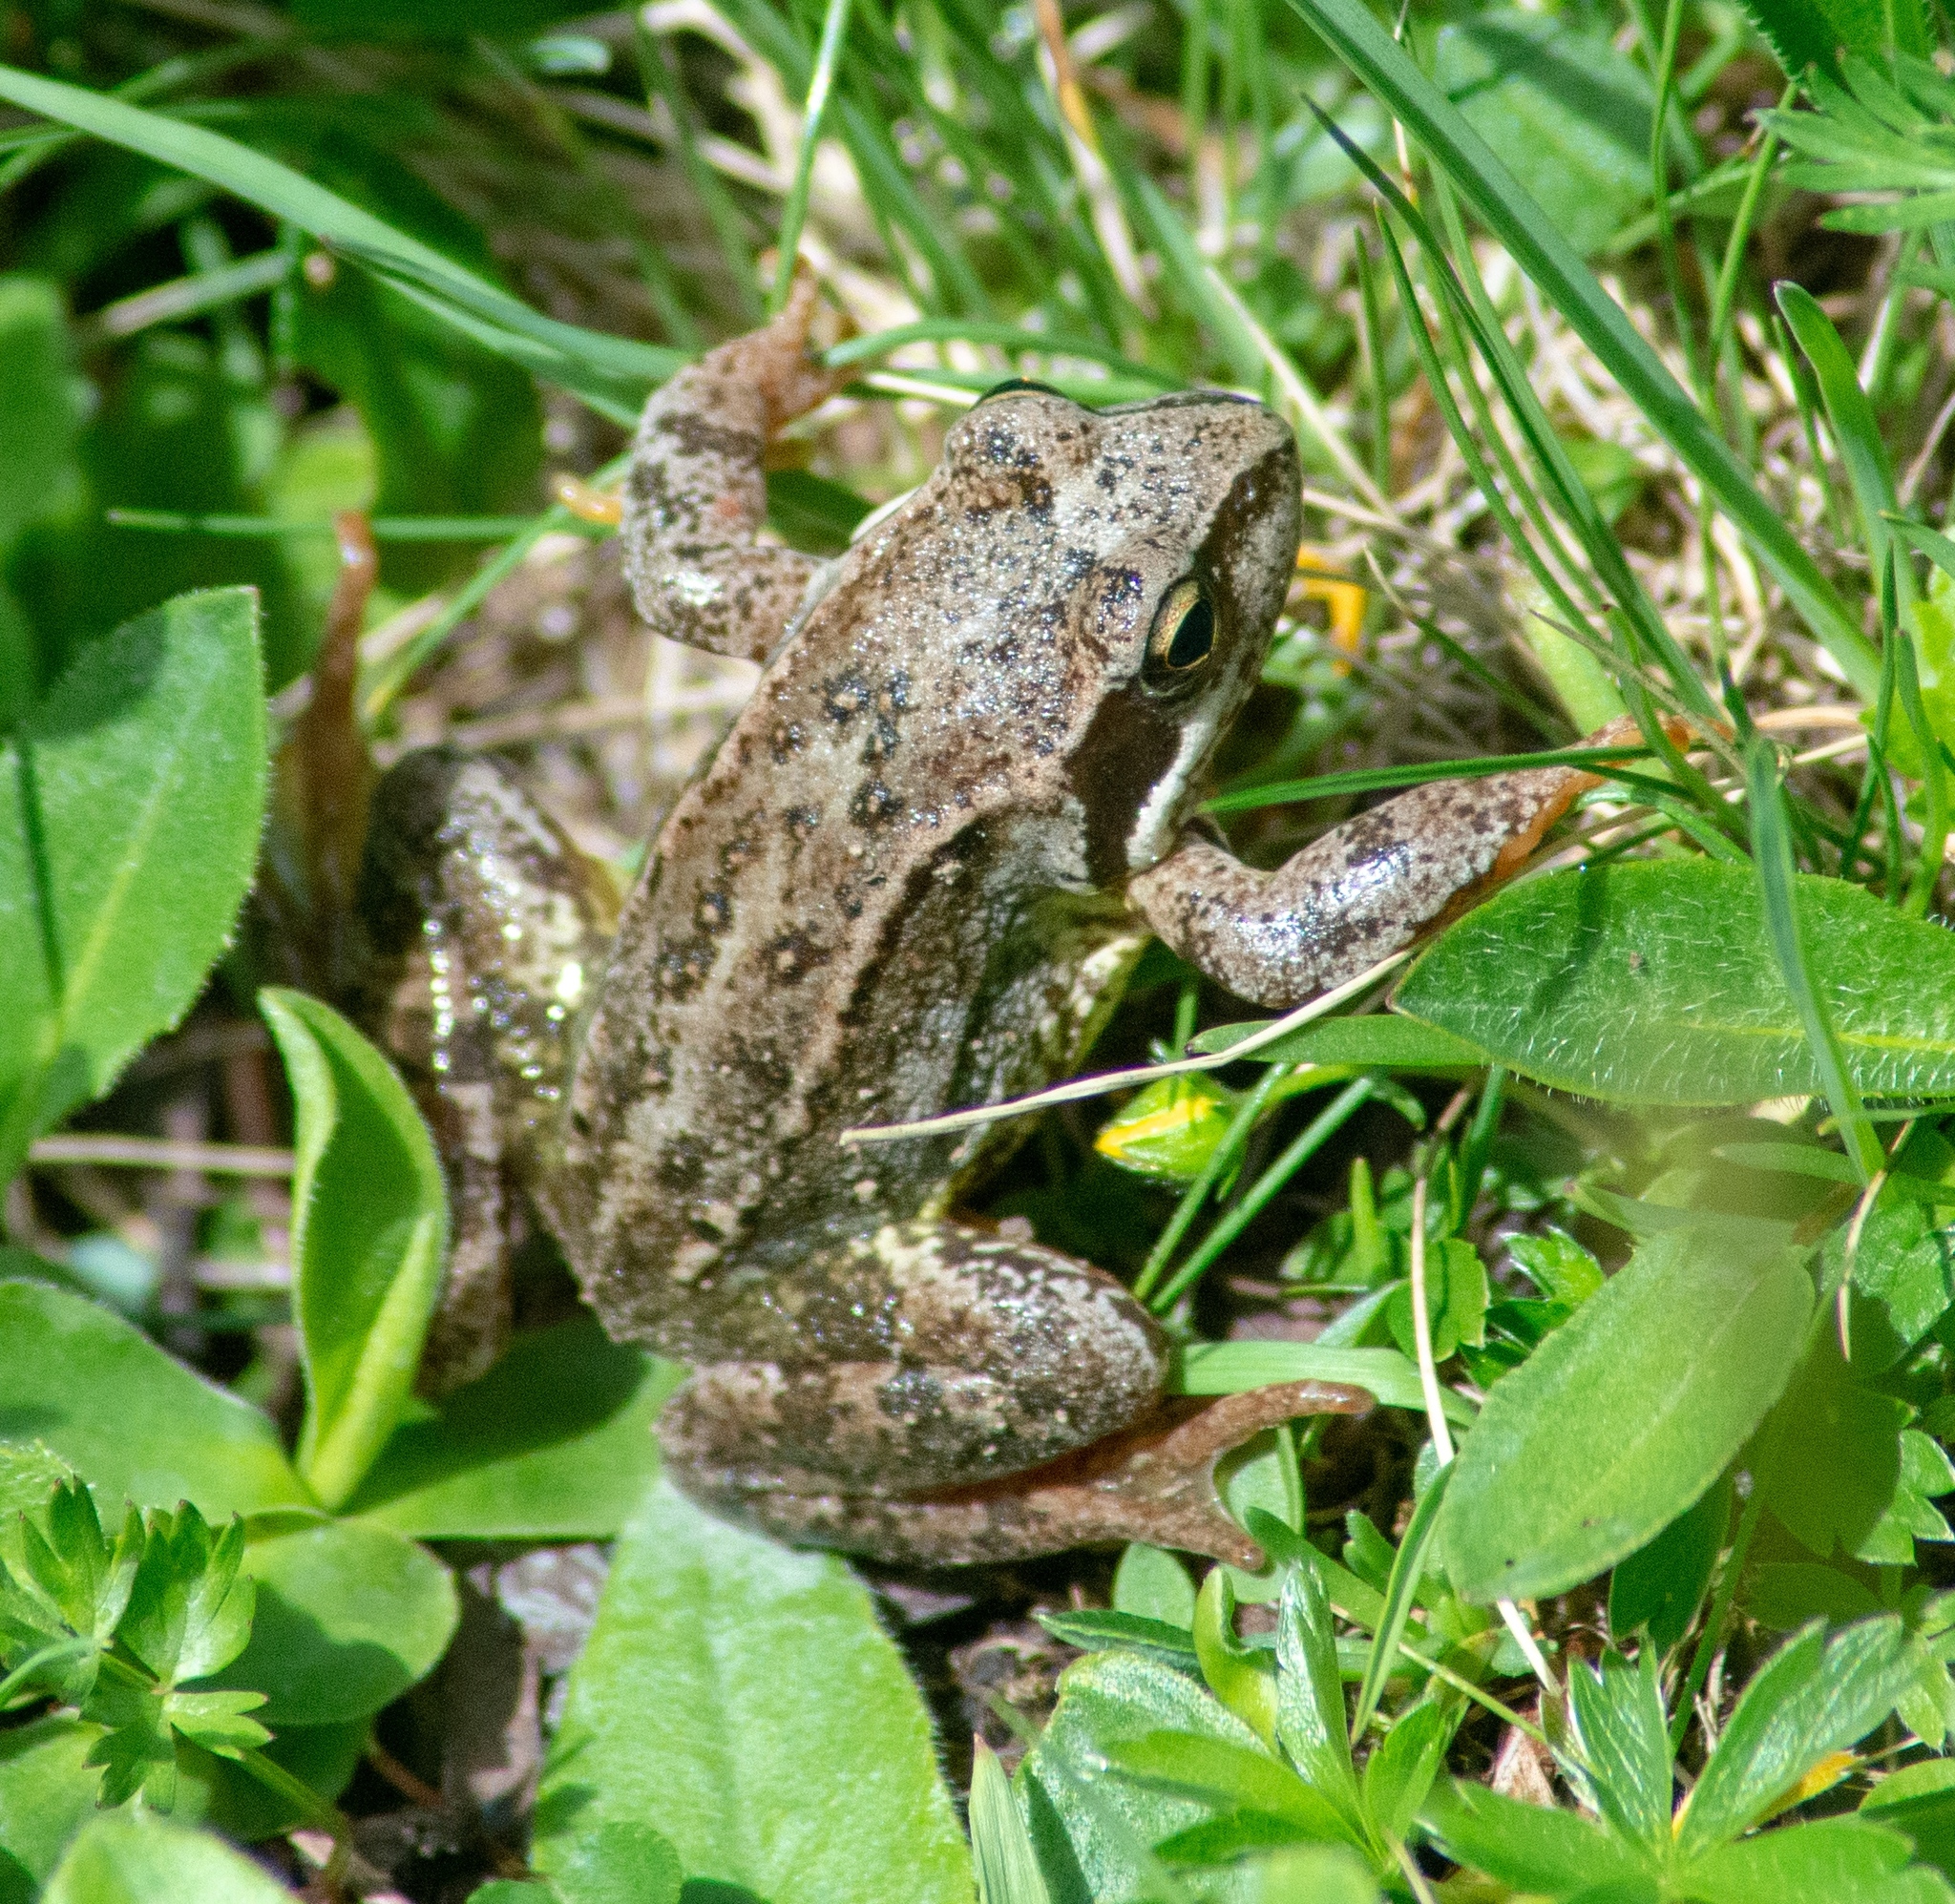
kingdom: Animalia
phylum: Chordata
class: Amphibia
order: Anura
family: Ranidae
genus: Rana
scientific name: Rana temporaria
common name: Common frog
